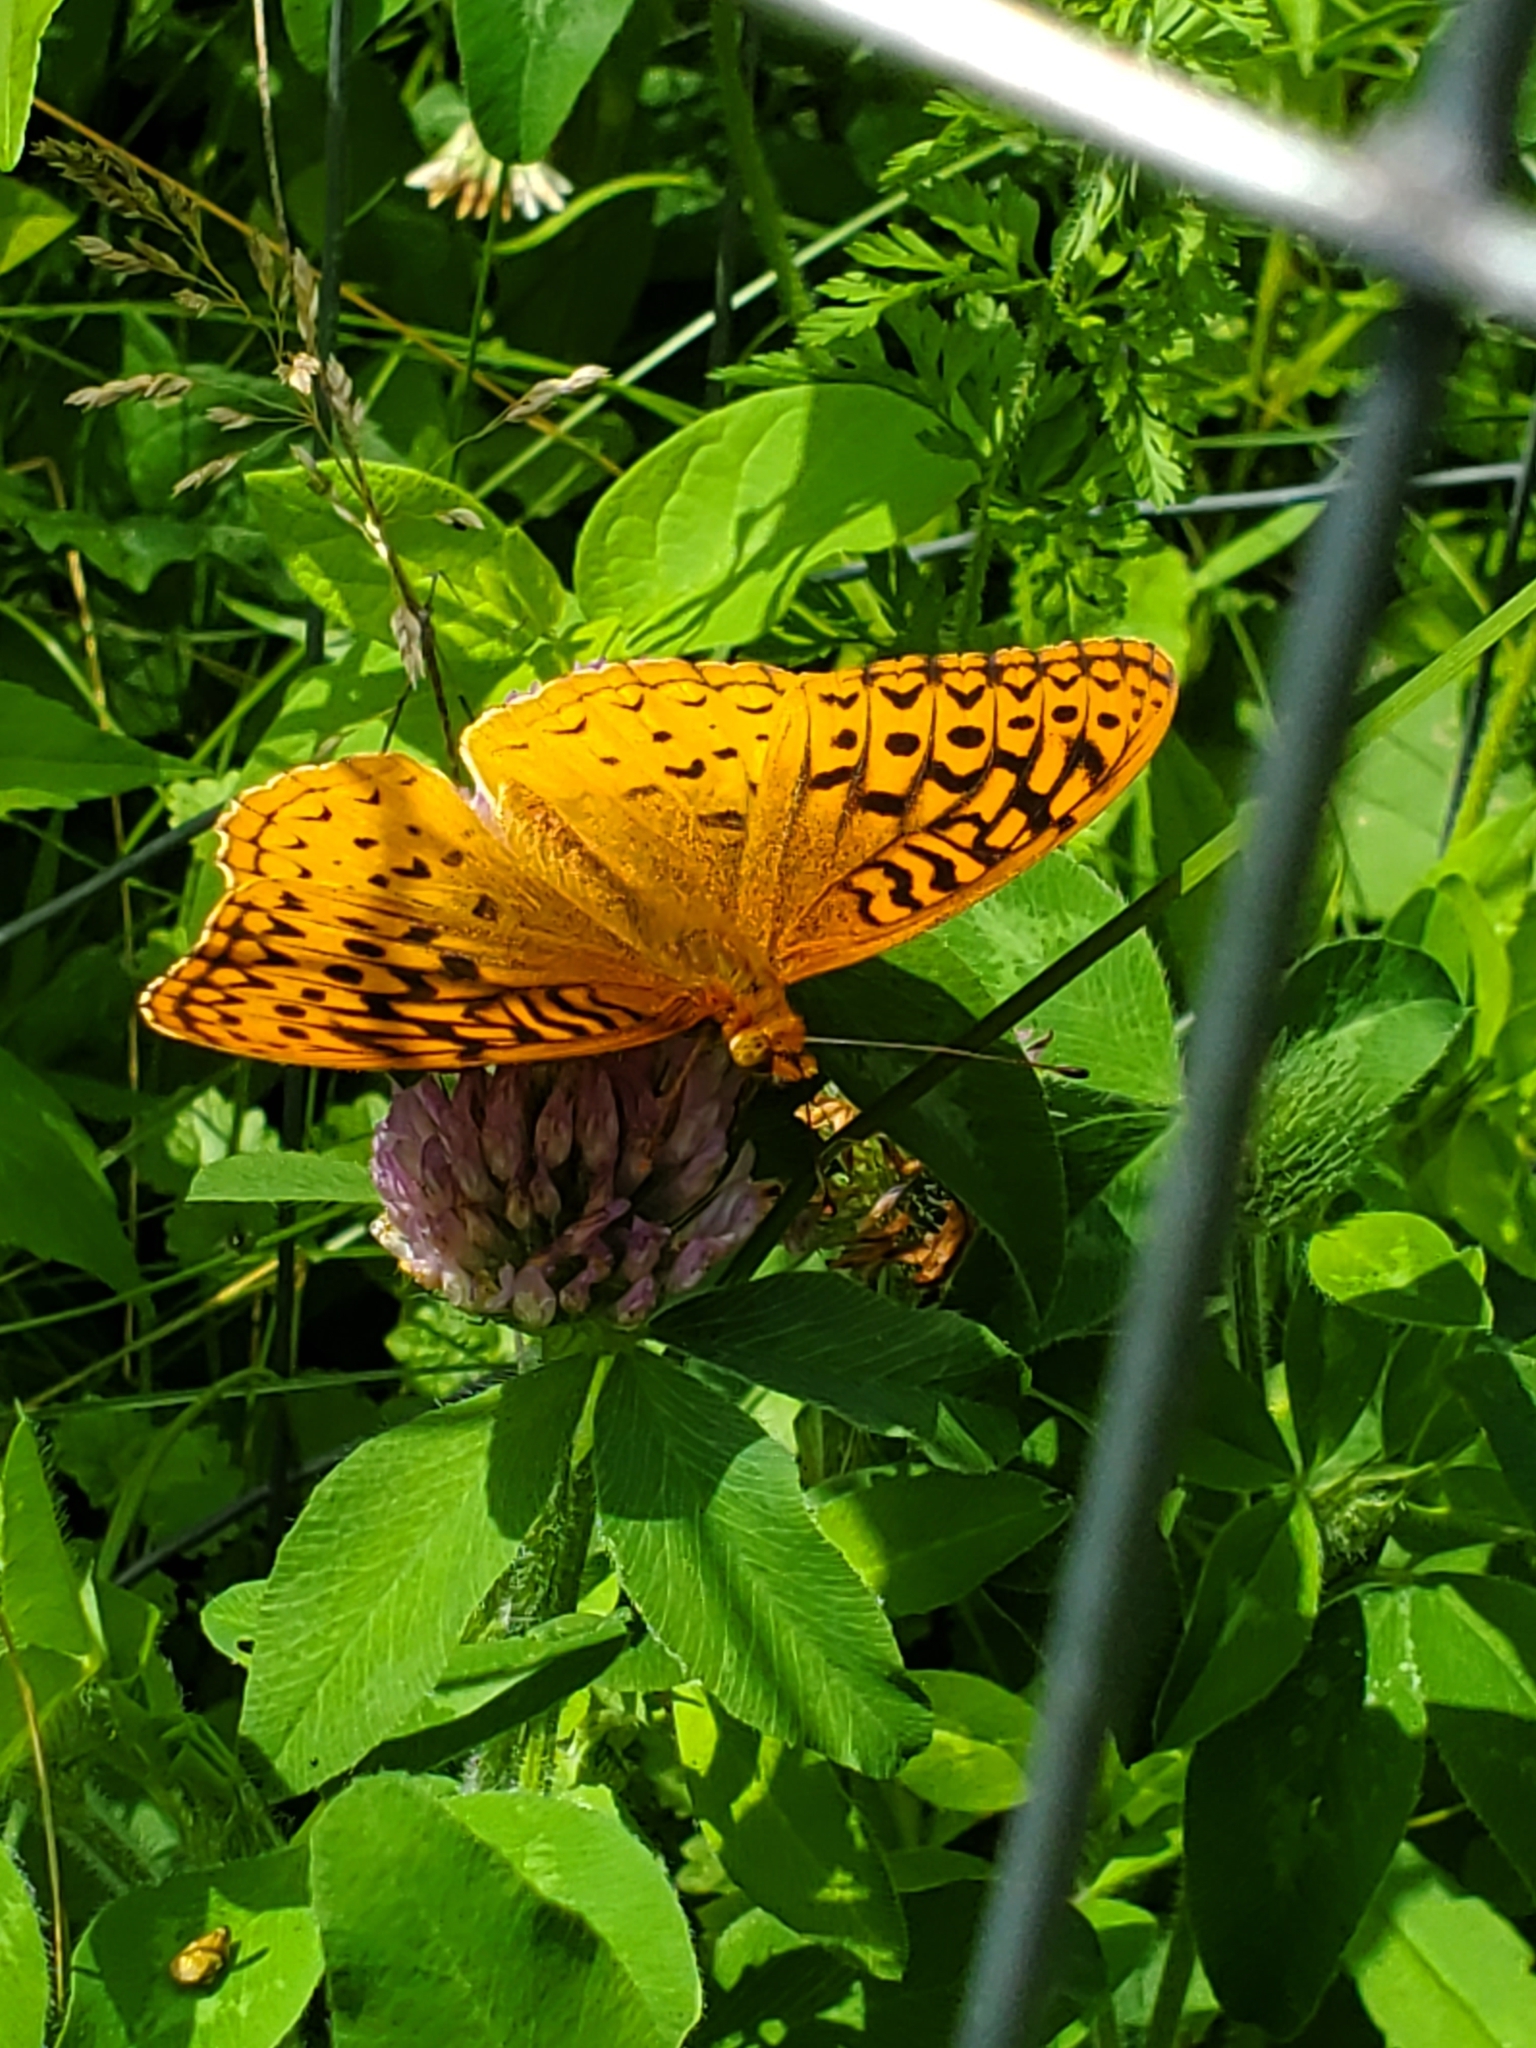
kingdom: Animalia
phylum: Arthropoda
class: Insecta
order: Lepidoptera
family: Nymphalidae
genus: Speyeria
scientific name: Speyeria cybele
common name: Great spangled fritillary
